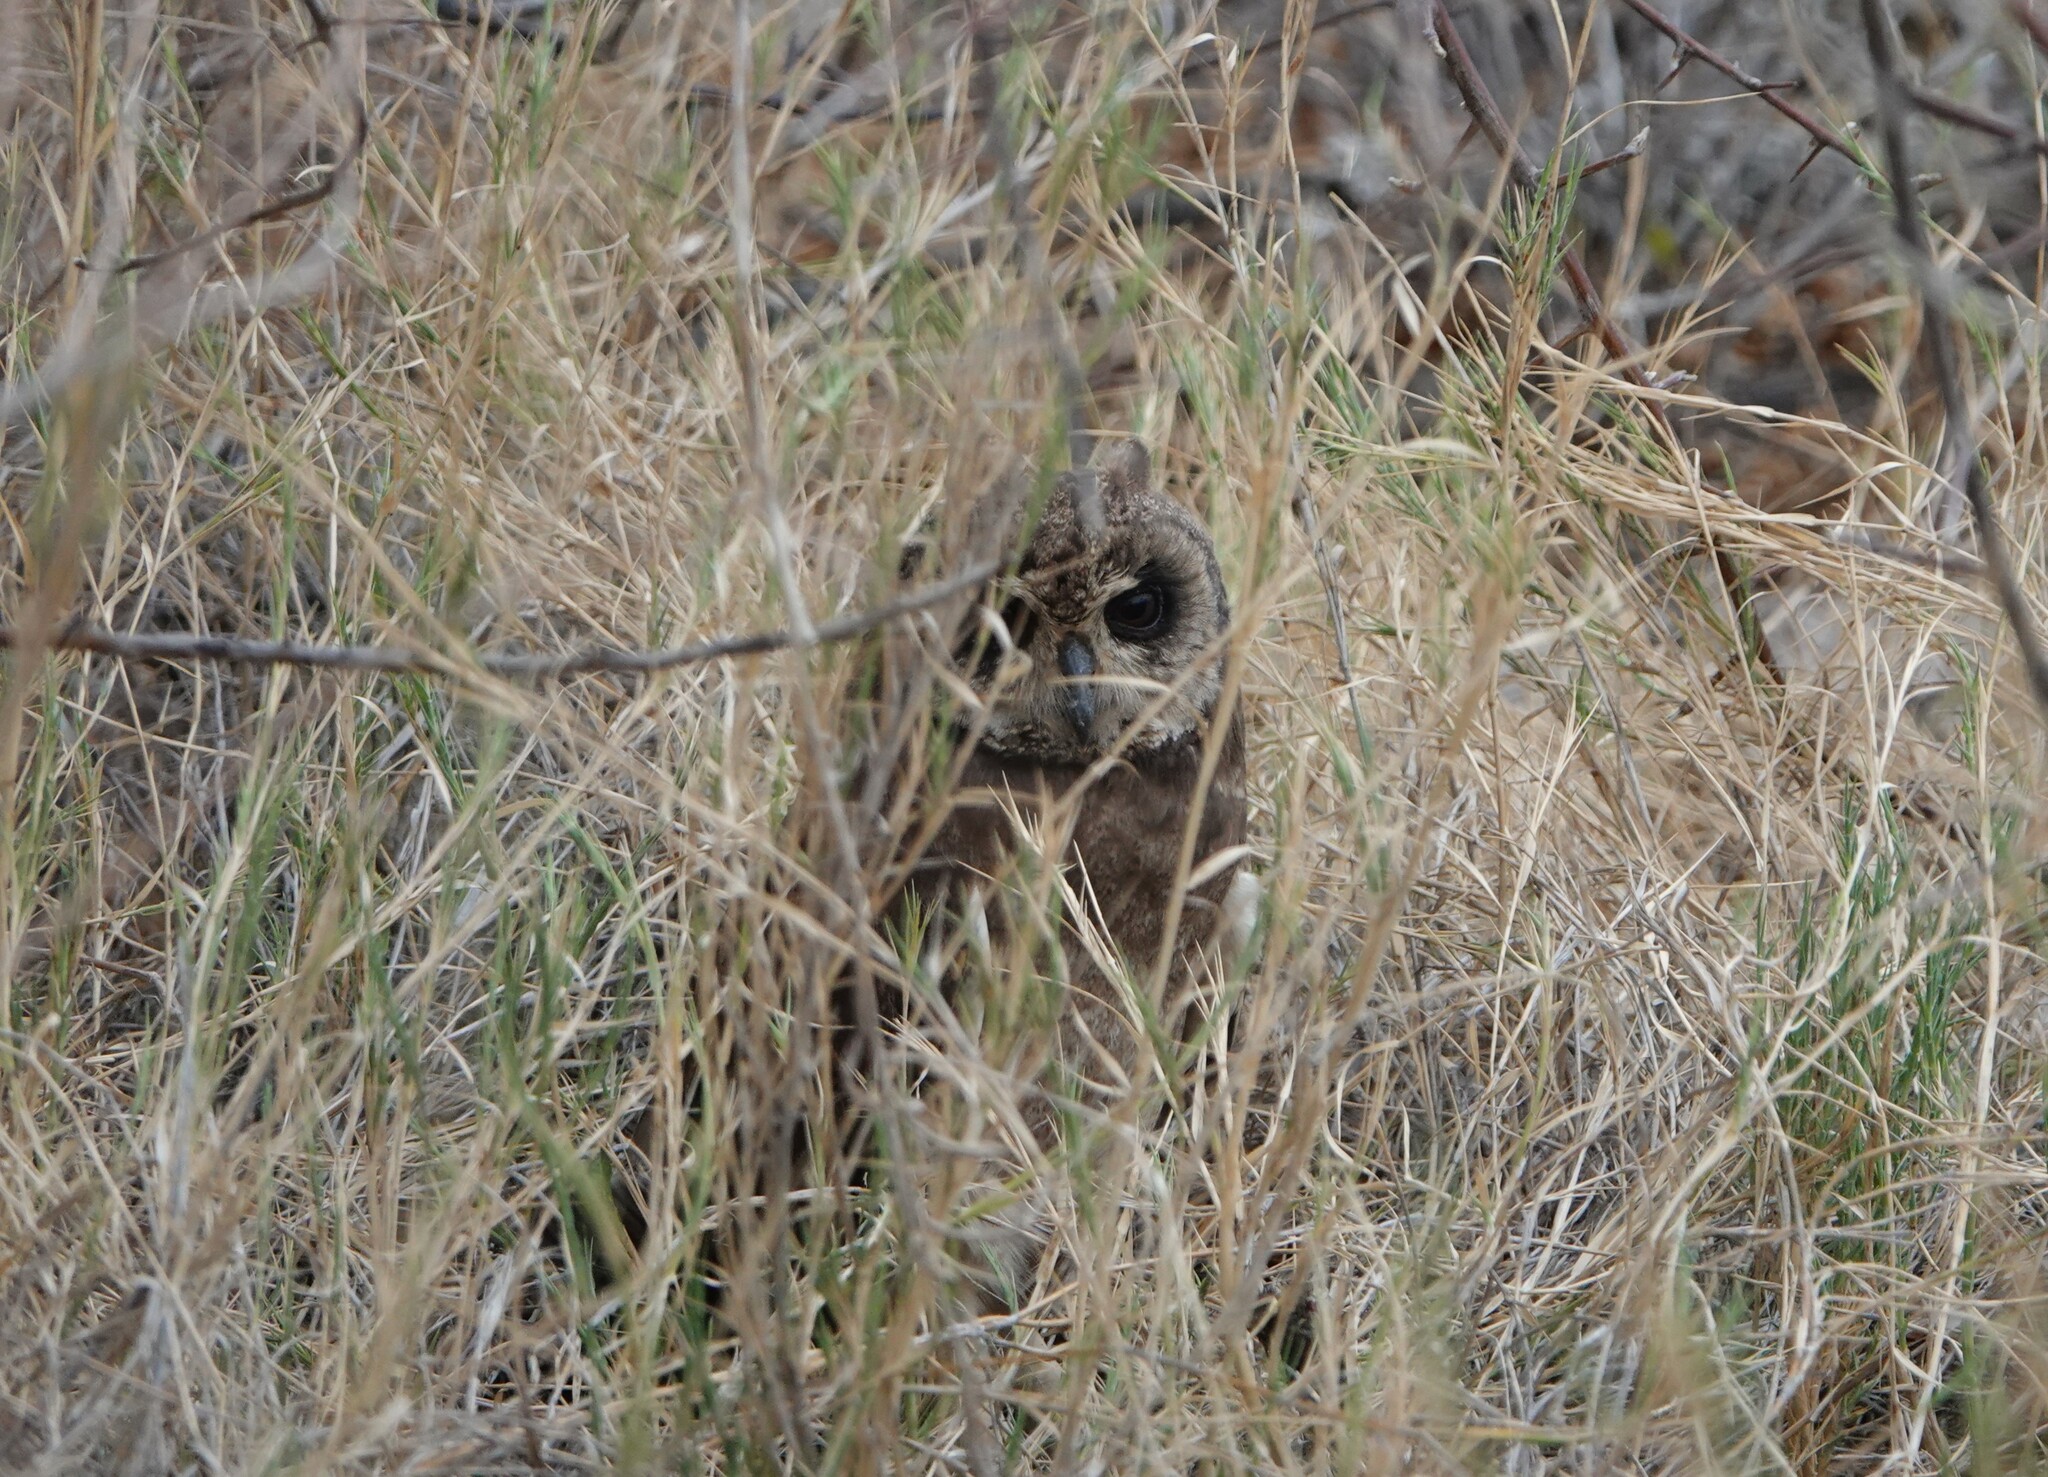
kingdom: Animalia
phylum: Chordata
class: Aves
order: Strigiformes
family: Strigidae
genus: Asio
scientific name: Asio capensis
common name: Marsh owl
